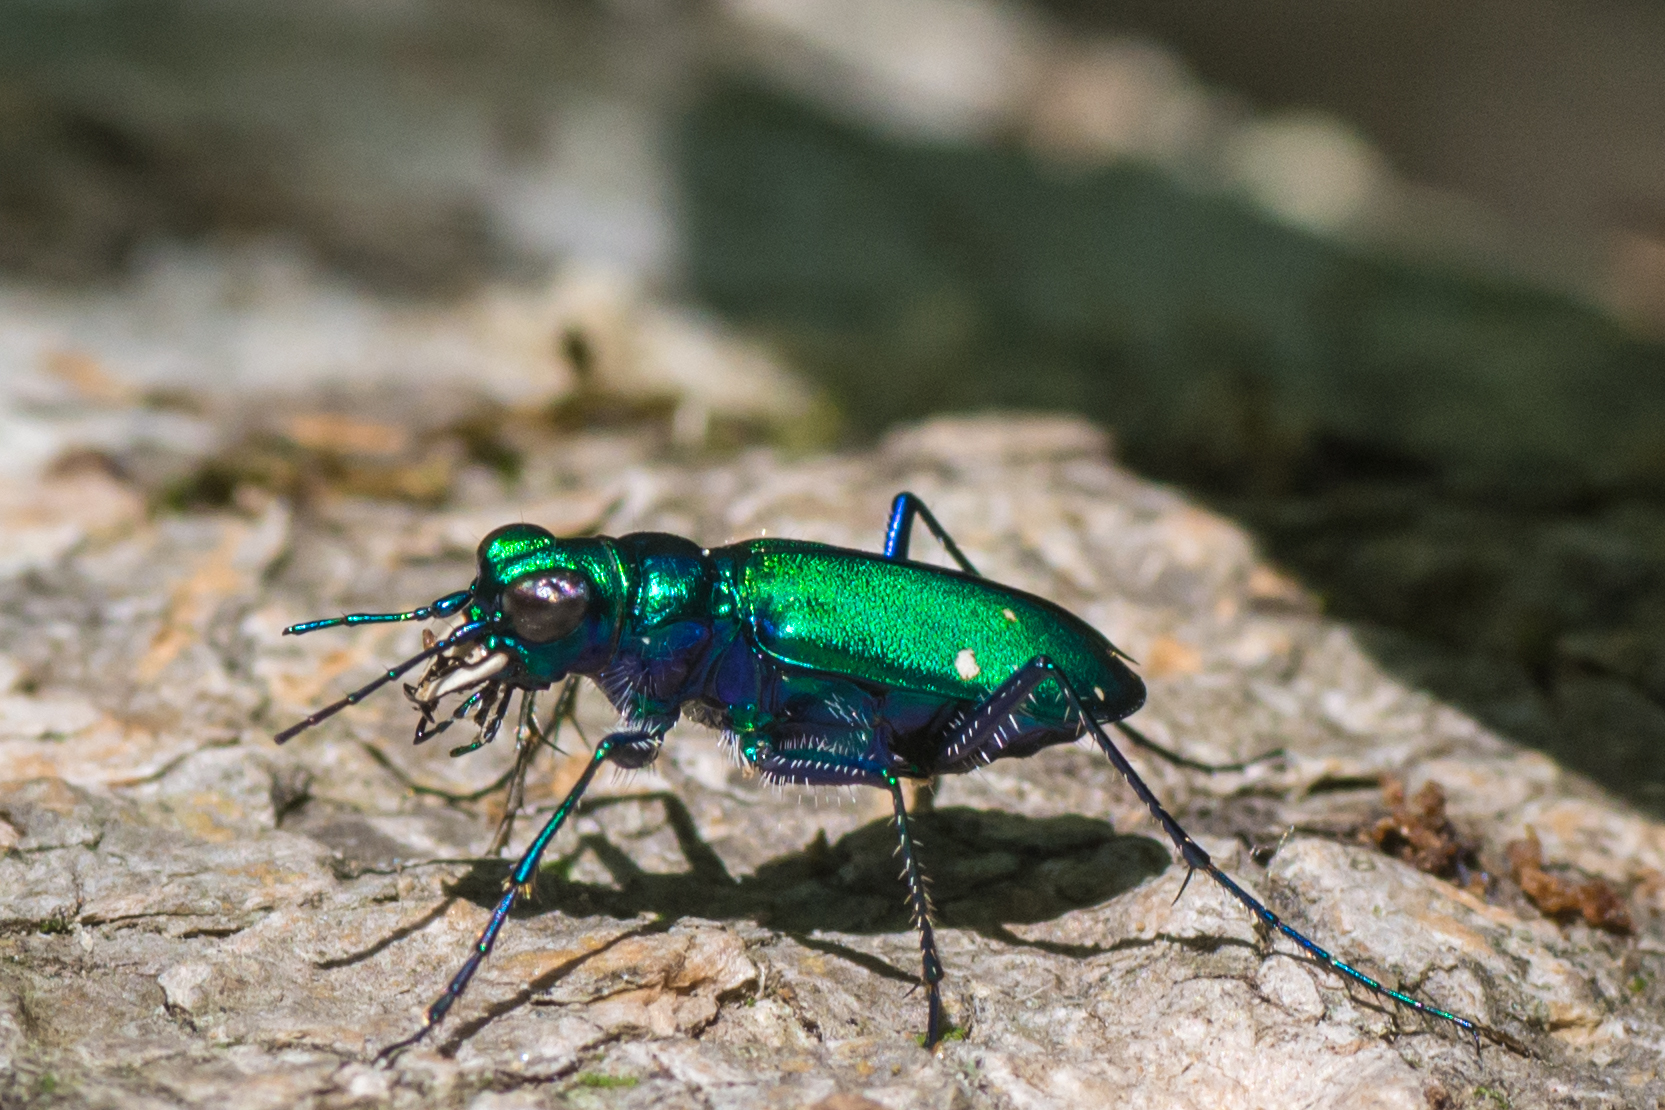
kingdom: Animalia
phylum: Arthropoda
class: Insecta
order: Coleoptera
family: Carabidae
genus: Cicindela
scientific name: Cicindela sexguttata
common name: Six-spotted tiger beetle
